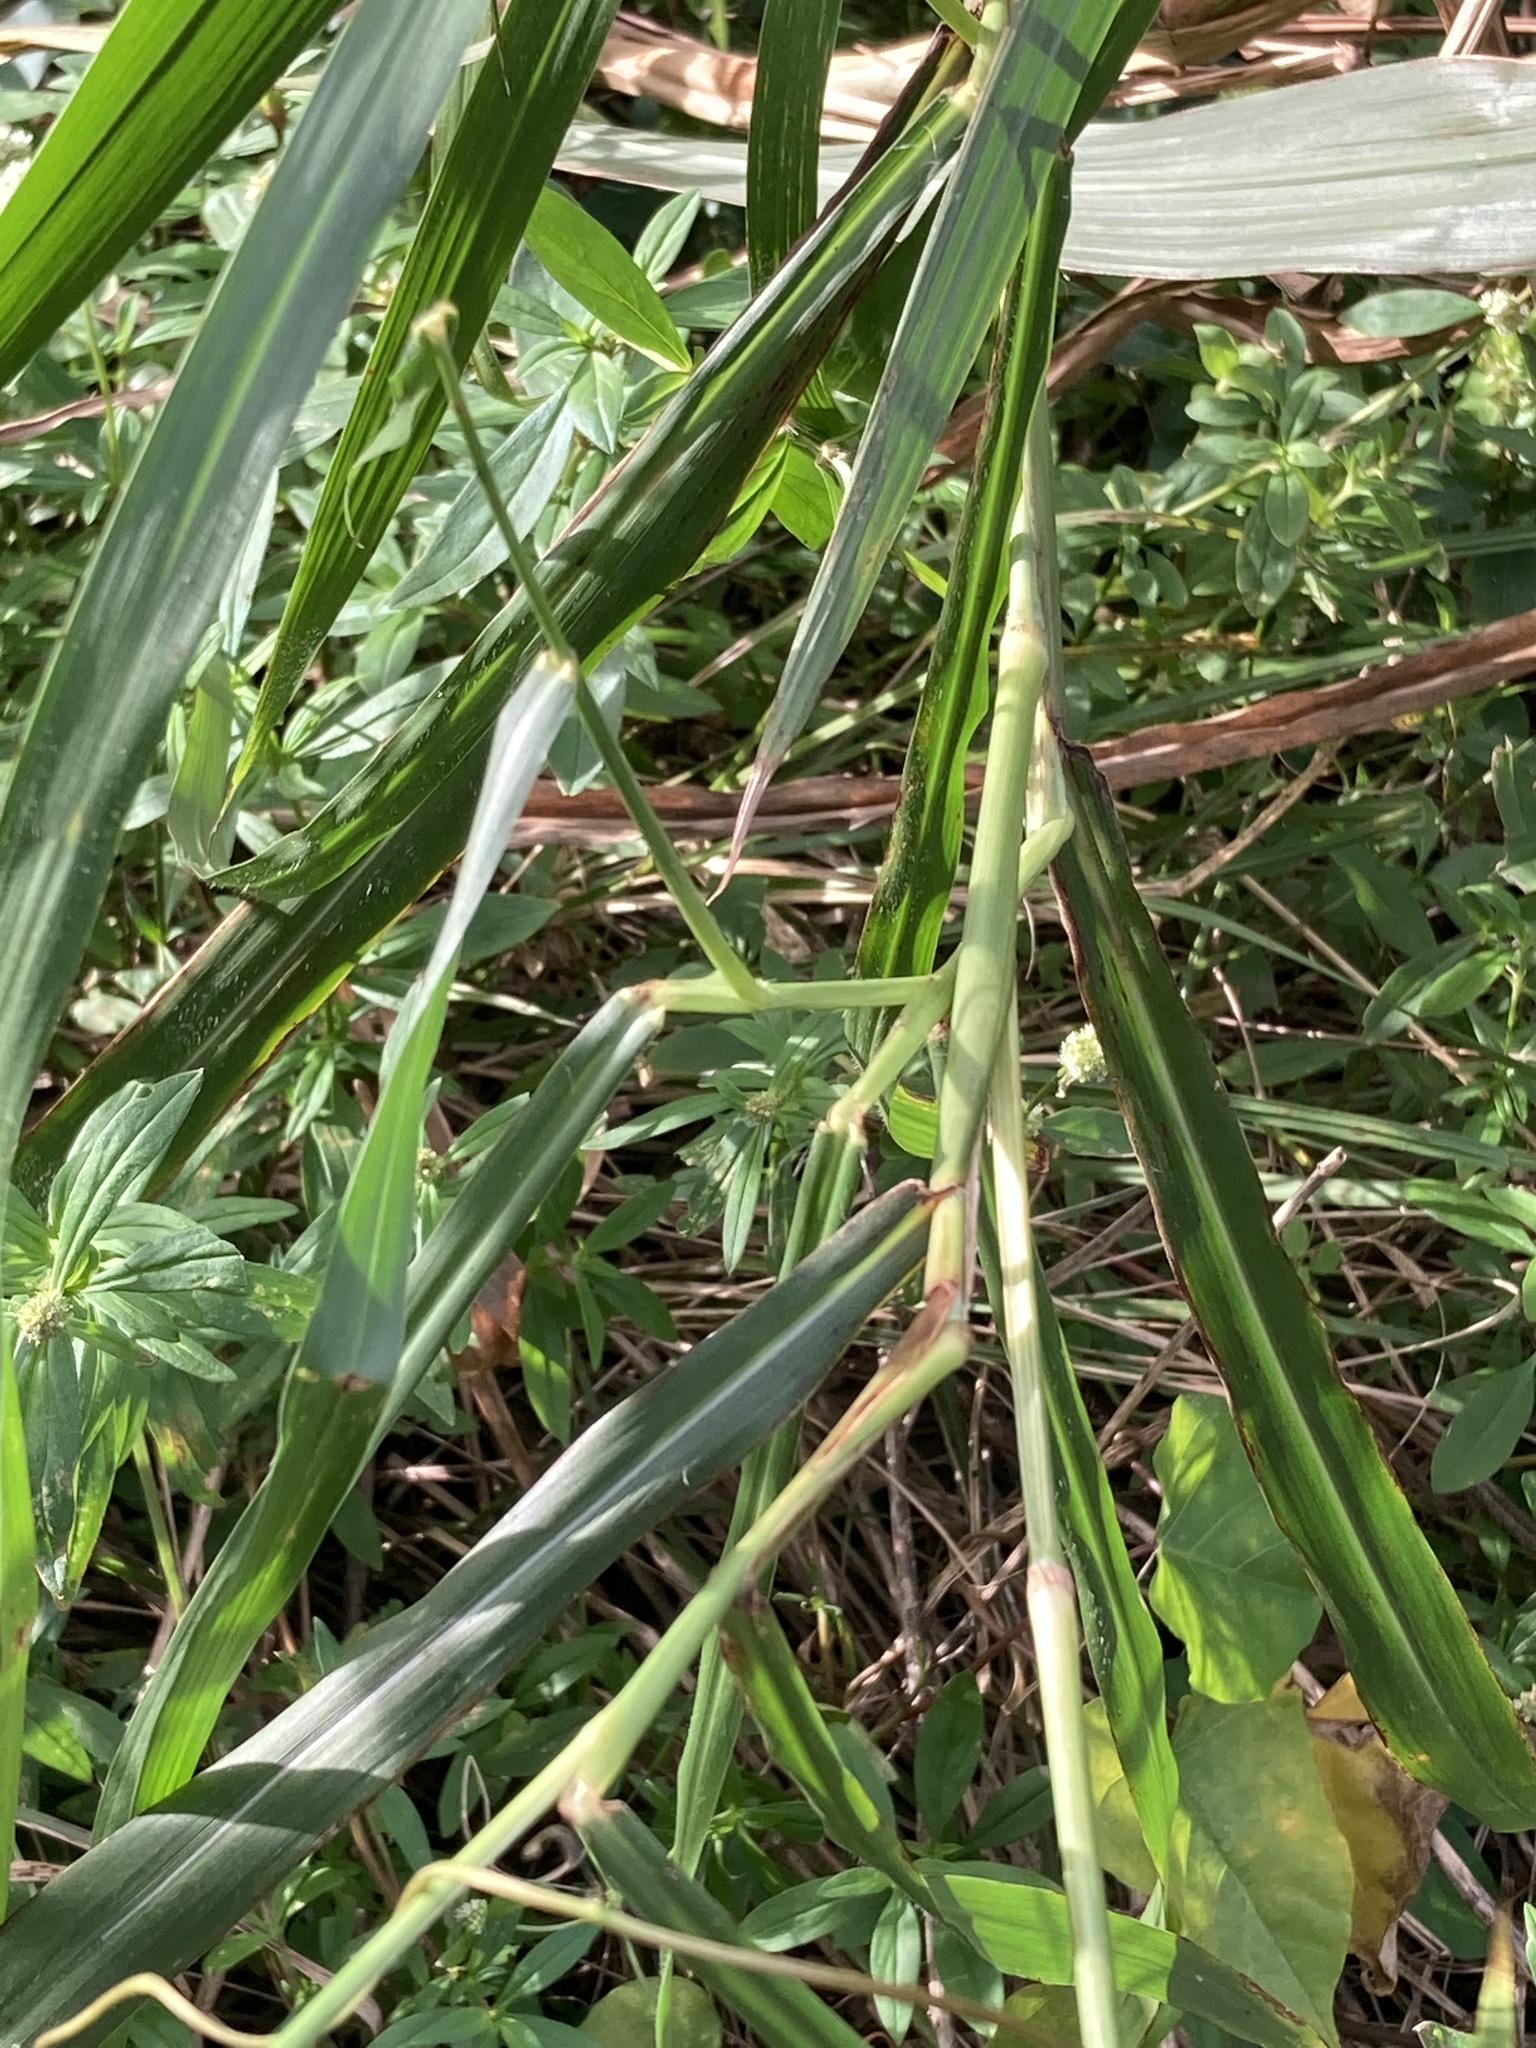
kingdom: Plantae
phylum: Tracheophyta
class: Liliopsida
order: Poales
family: Poaceae
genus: Cenchrus
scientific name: Cenchrus purpureus
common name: Elephant grass
